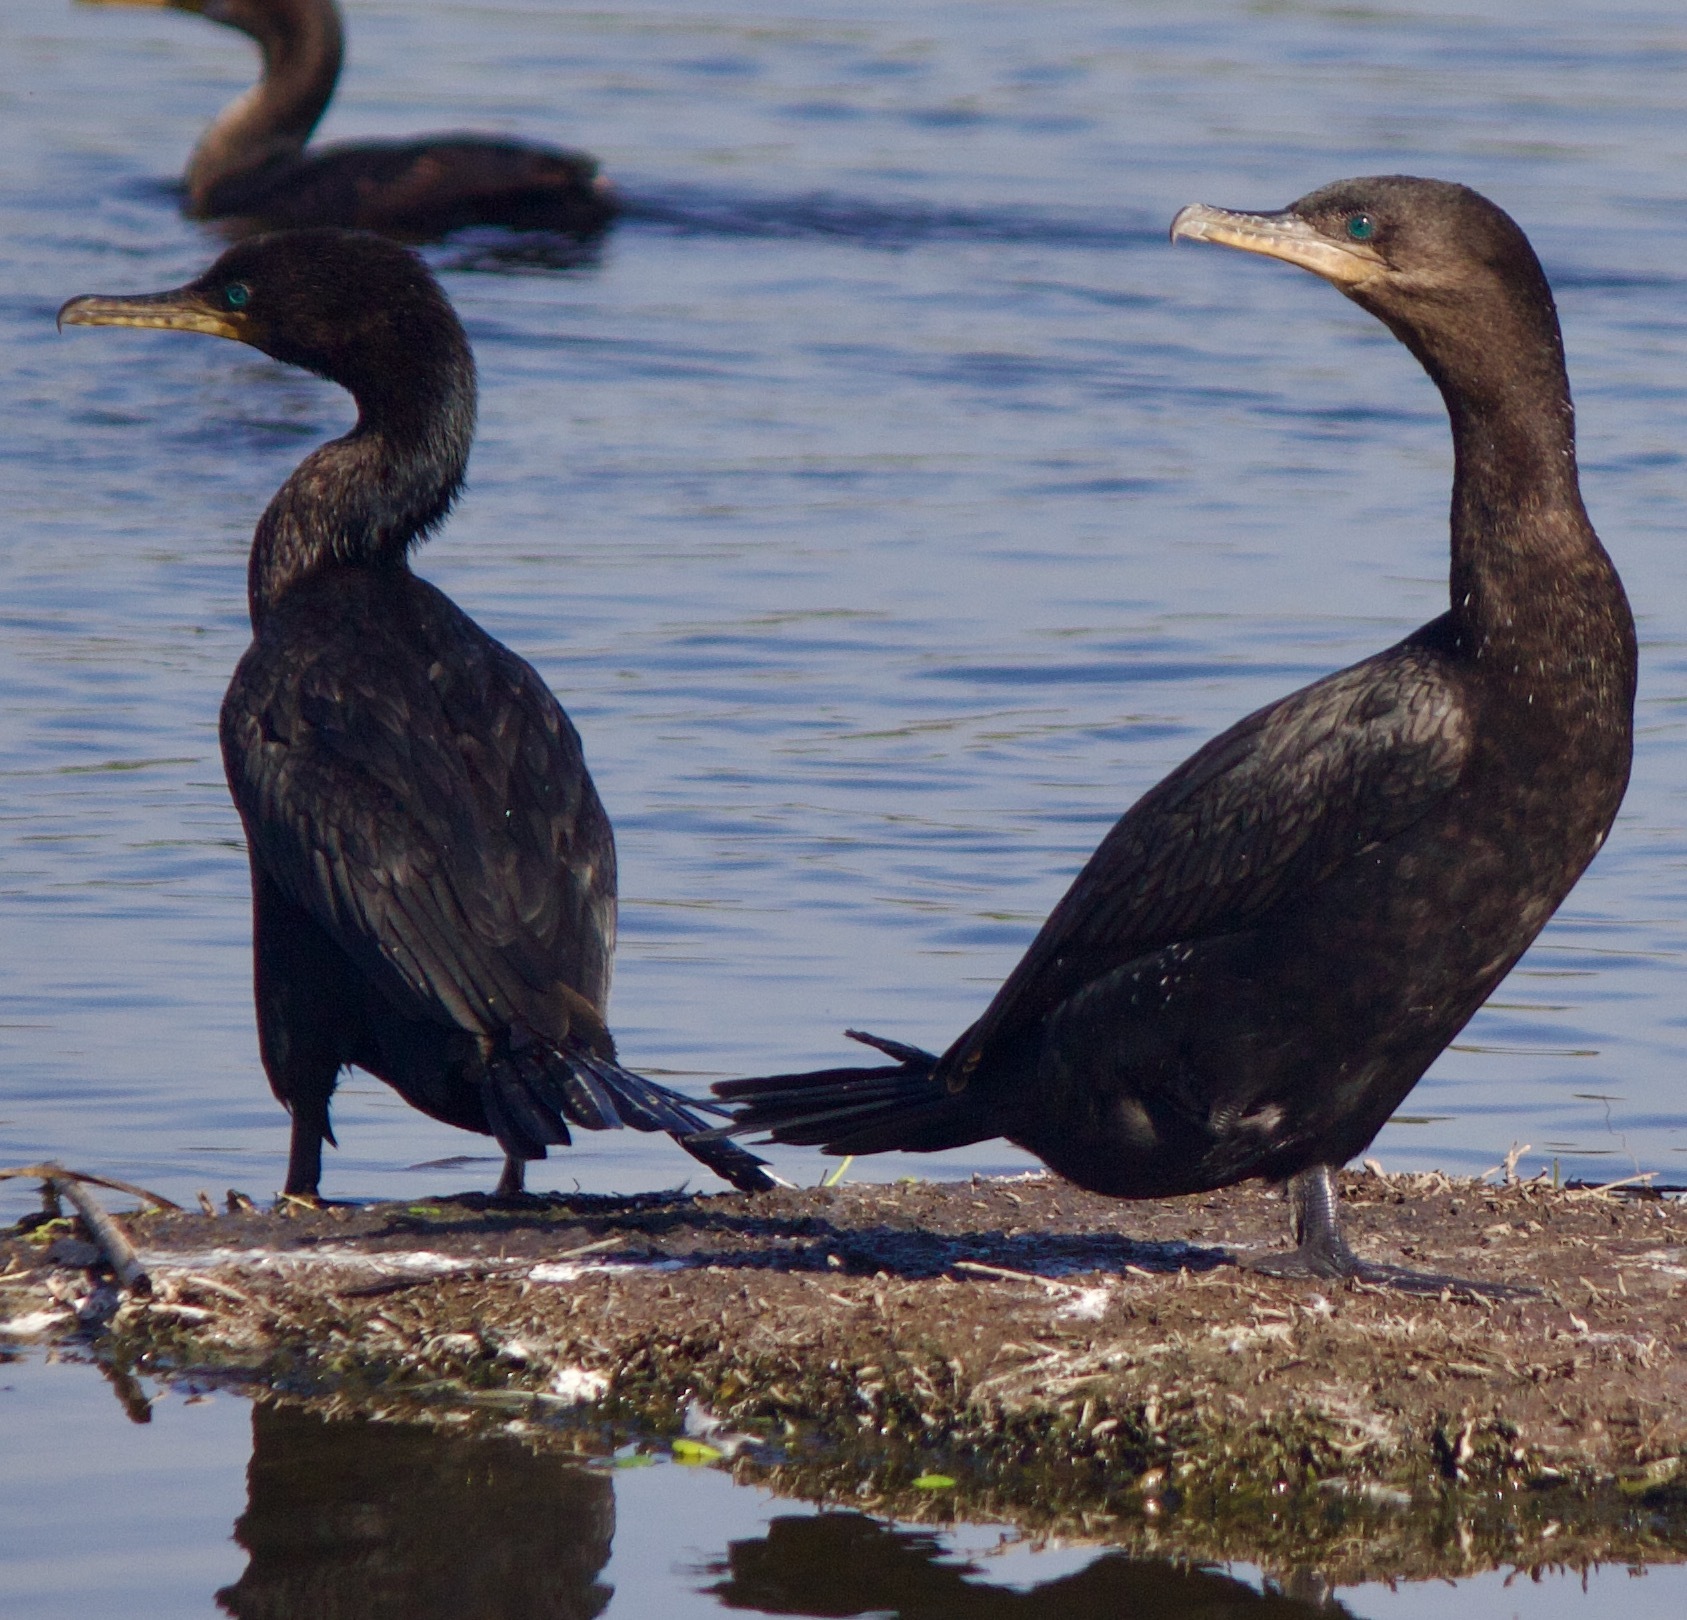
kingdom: Animalia
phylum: Chordata
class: Aves
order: Suliformes
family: Phalacrocoracidae
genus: Phalacrocorax
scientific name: Phalacrocorax brasilianus
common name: Neotropic cormorant
